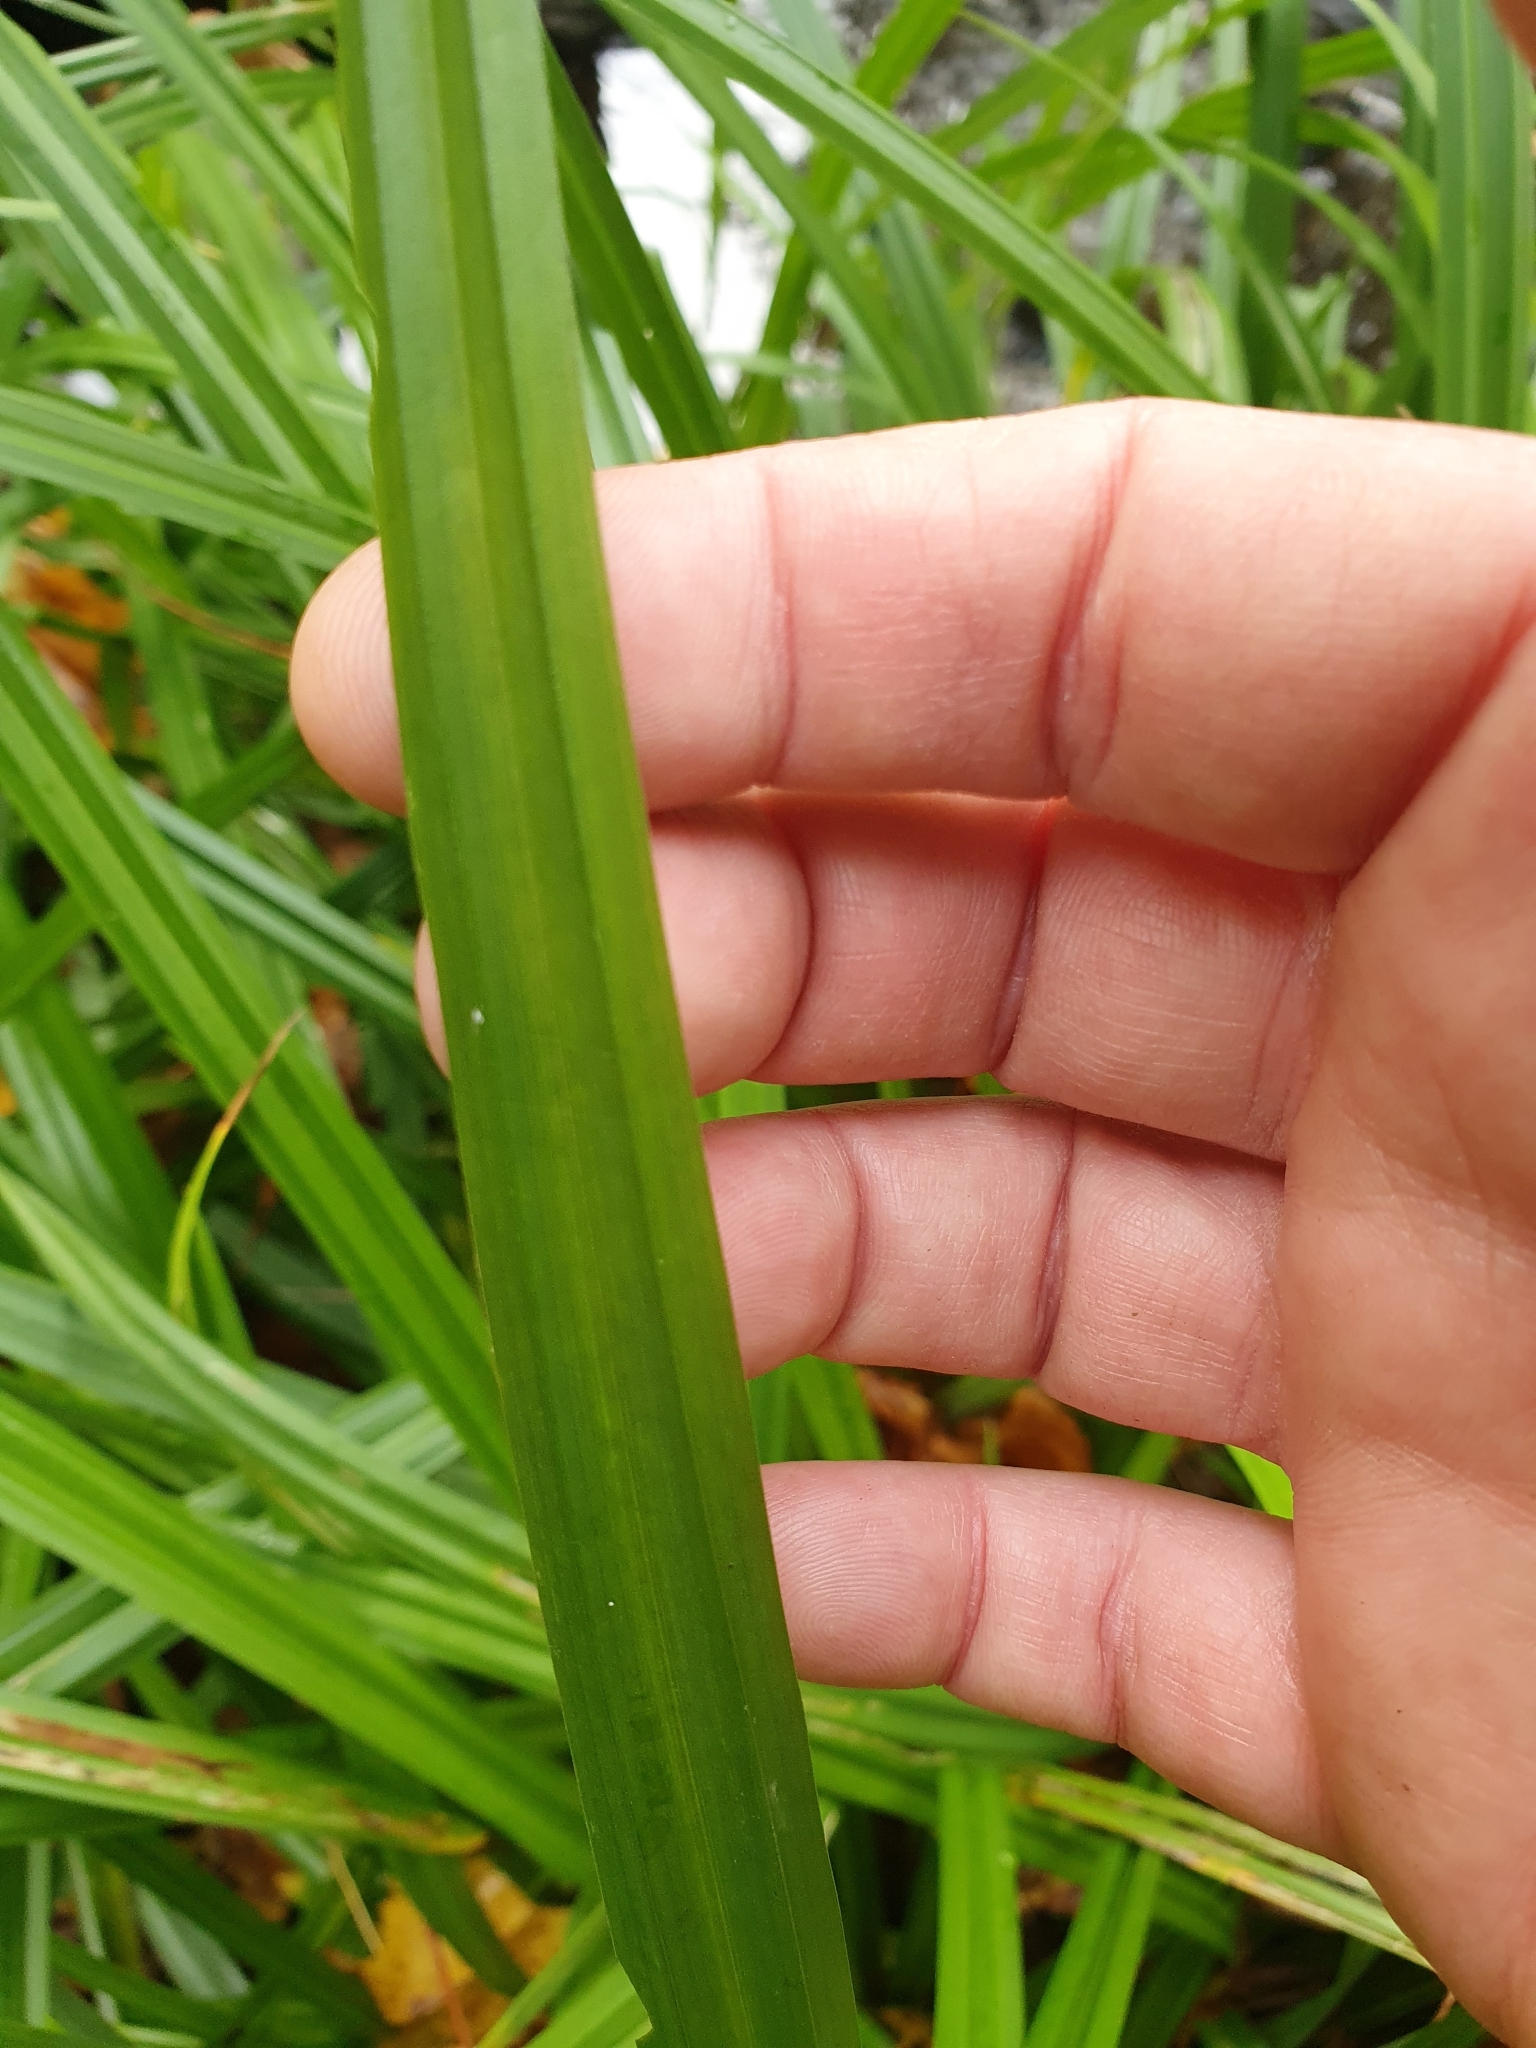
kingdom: Plantae
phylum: Tracheophyta
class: Liliopsida
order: Poales
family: Cyperaceae
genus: Carex
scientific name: Carex pendula
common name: Pendulous sedge
